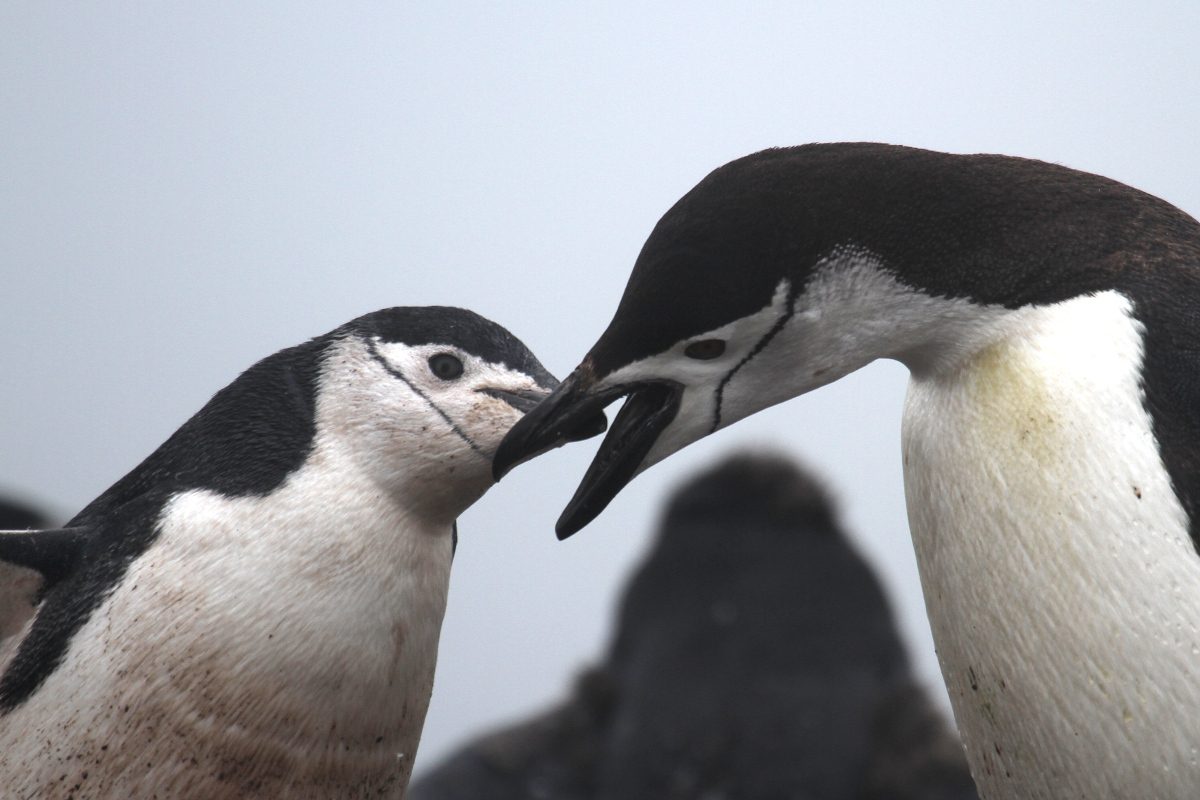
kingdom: Animalia
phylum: Chordata
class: Aves
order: Sphenisciformes
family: Spheniscidae
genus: Pygoscelis
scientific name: Pygoscelis antarcticus
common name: Chinstrap penguin
